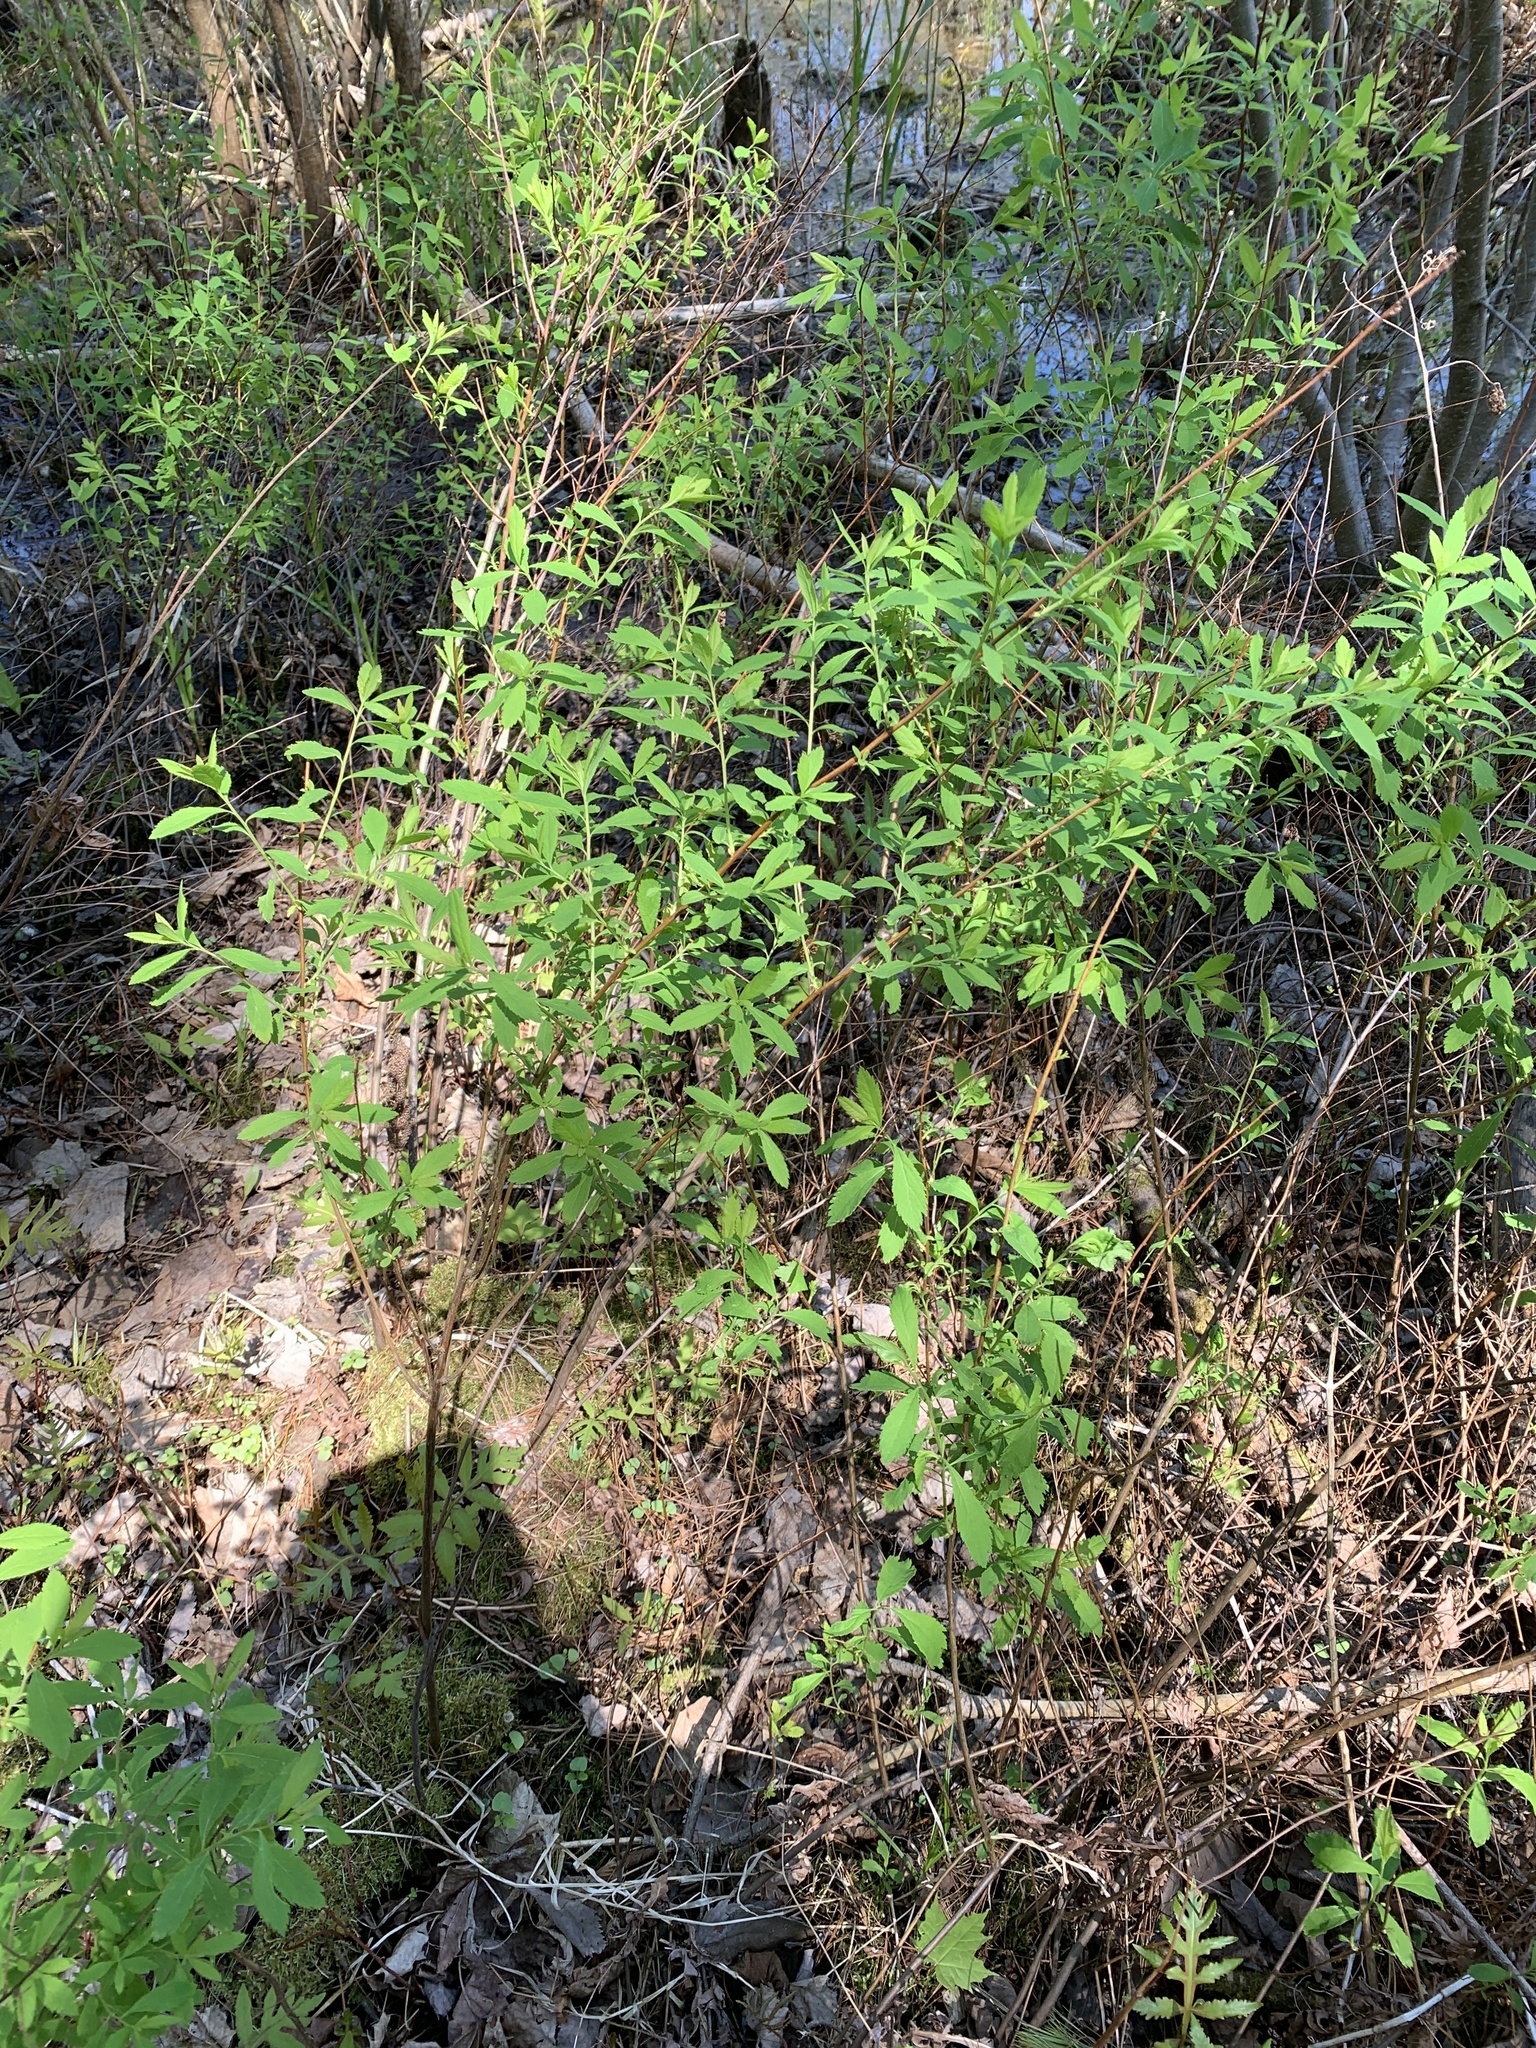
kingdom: Plantae
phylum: Tracheophyta
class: Magnoliopsida
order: Rosales
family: Rosaceae
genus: Spiraea
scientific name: Spiraea alba
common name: Pale bridewort
